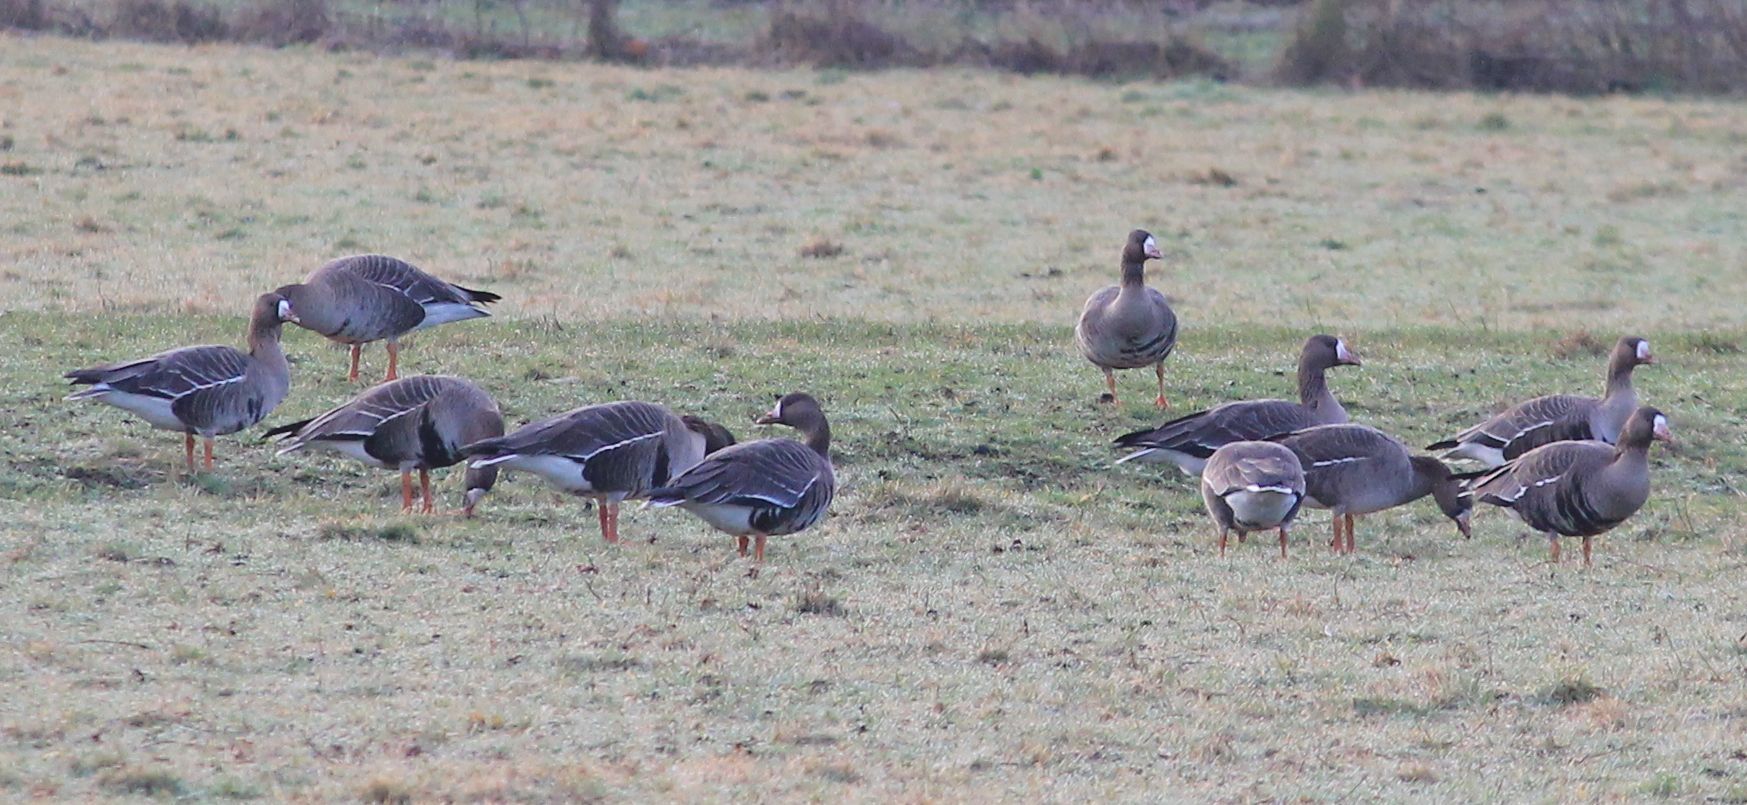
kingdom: Animalia
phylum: Chordata
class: Aves
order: Anseriformes
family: Anatidae
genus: Anser
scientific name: Anser albifrons
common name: Greater white-fronted goose
